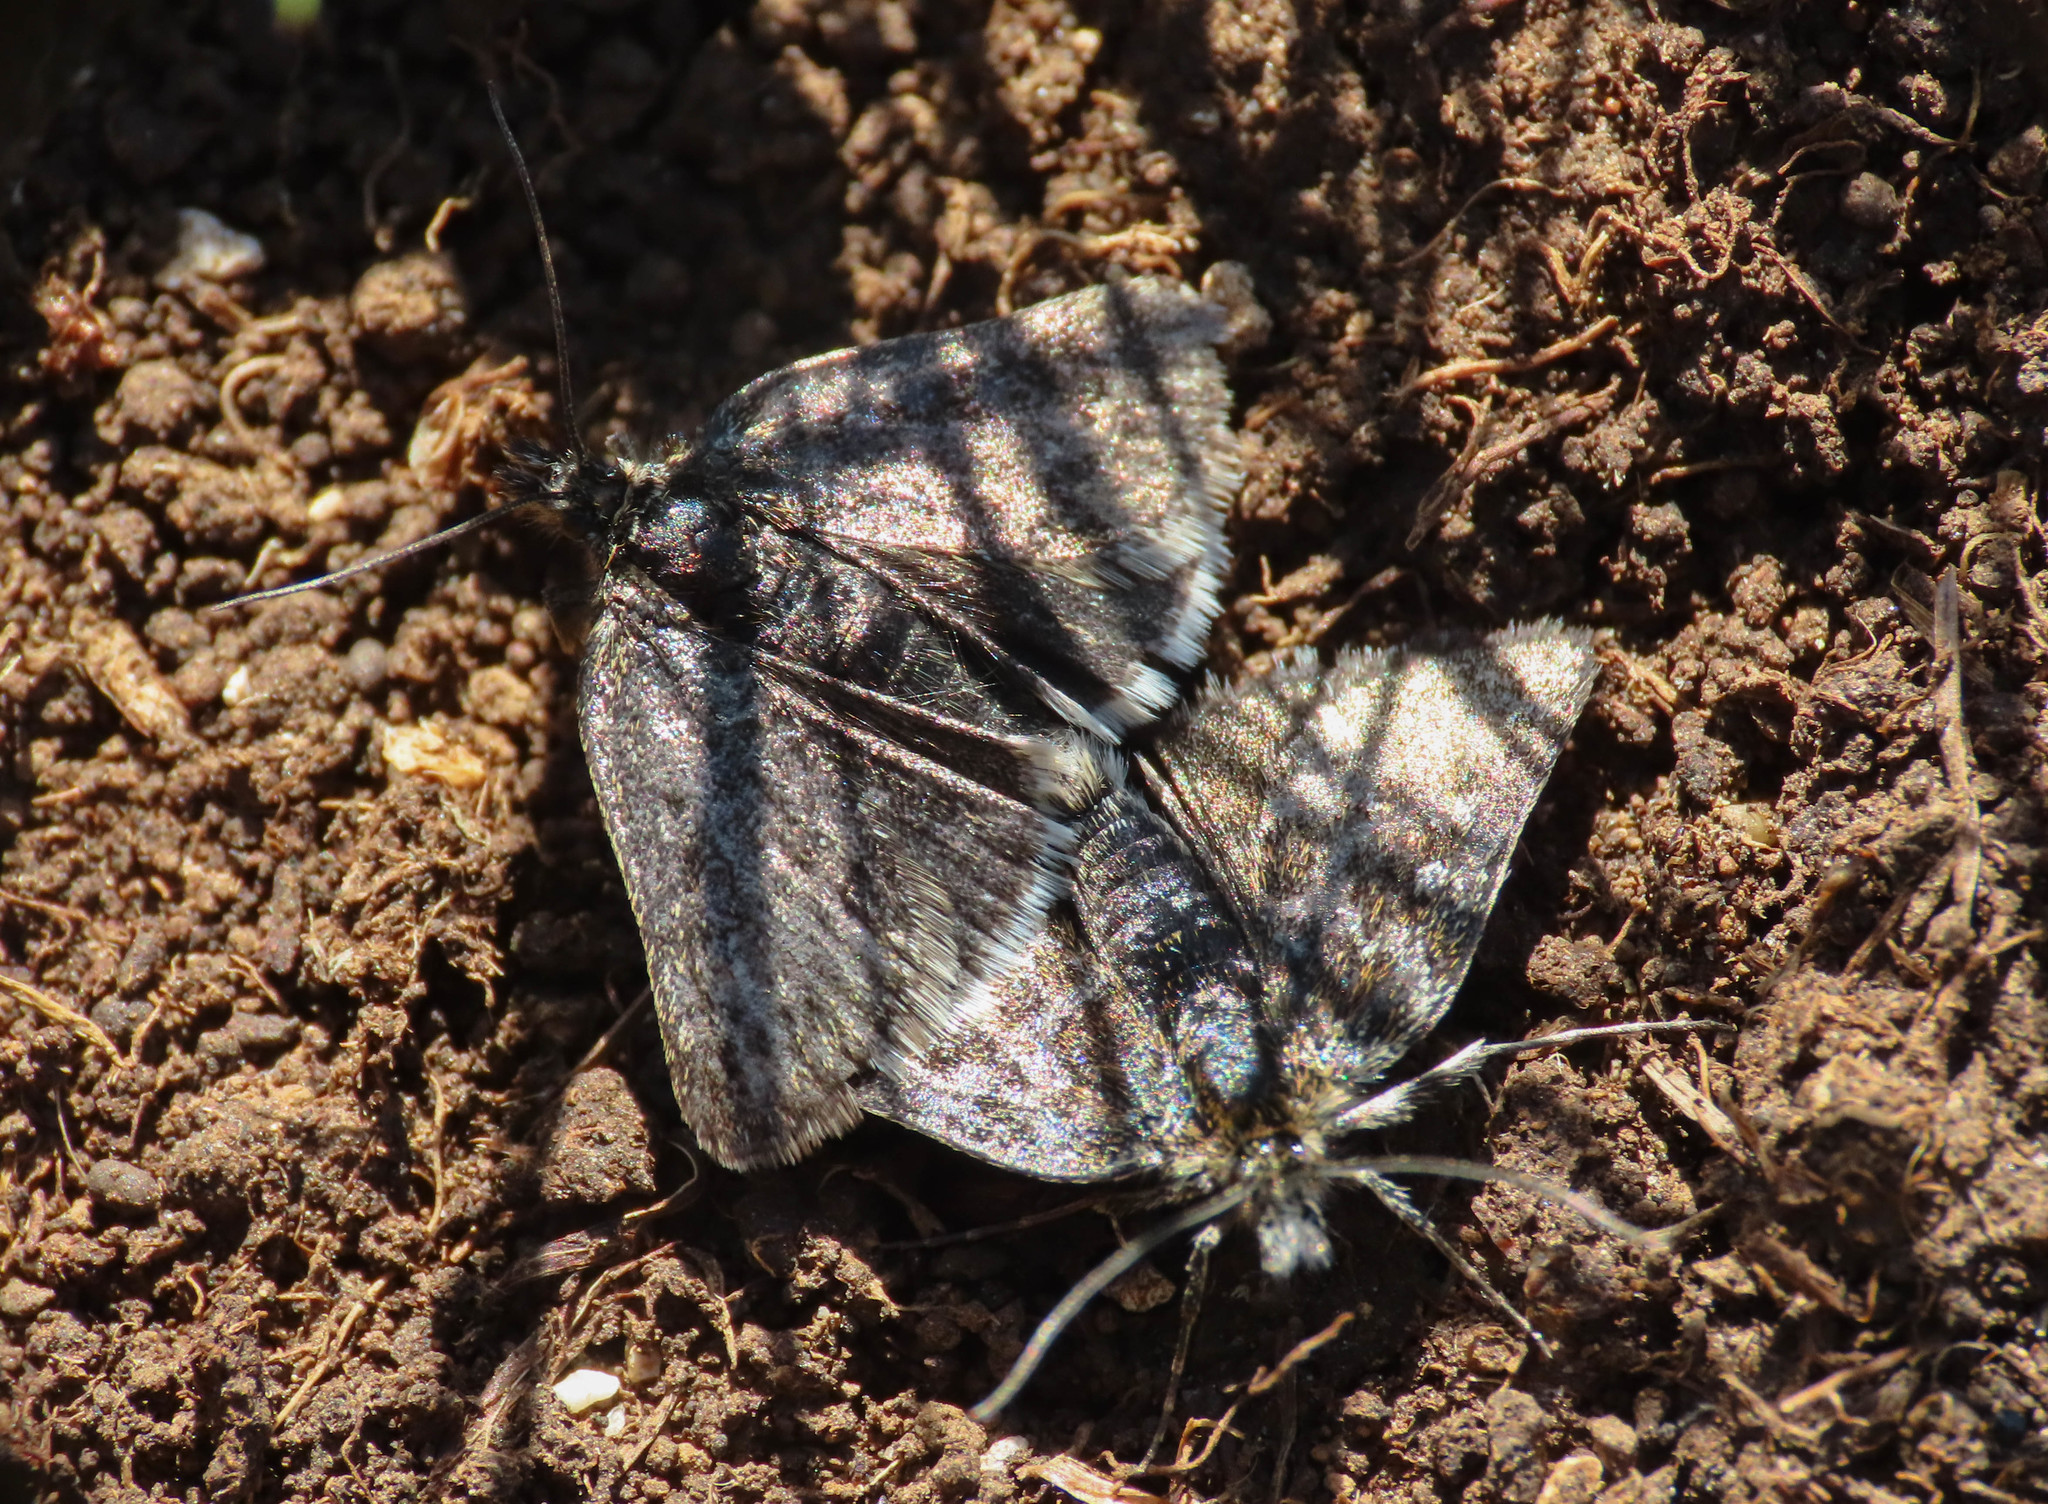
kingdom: Animalia
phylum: Arthropoda
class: Insecta
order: Lepidoptera
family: Crambidae
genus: Metaxmeste
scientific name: Metaxmeste phrygialis
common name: Black mountain pearl
